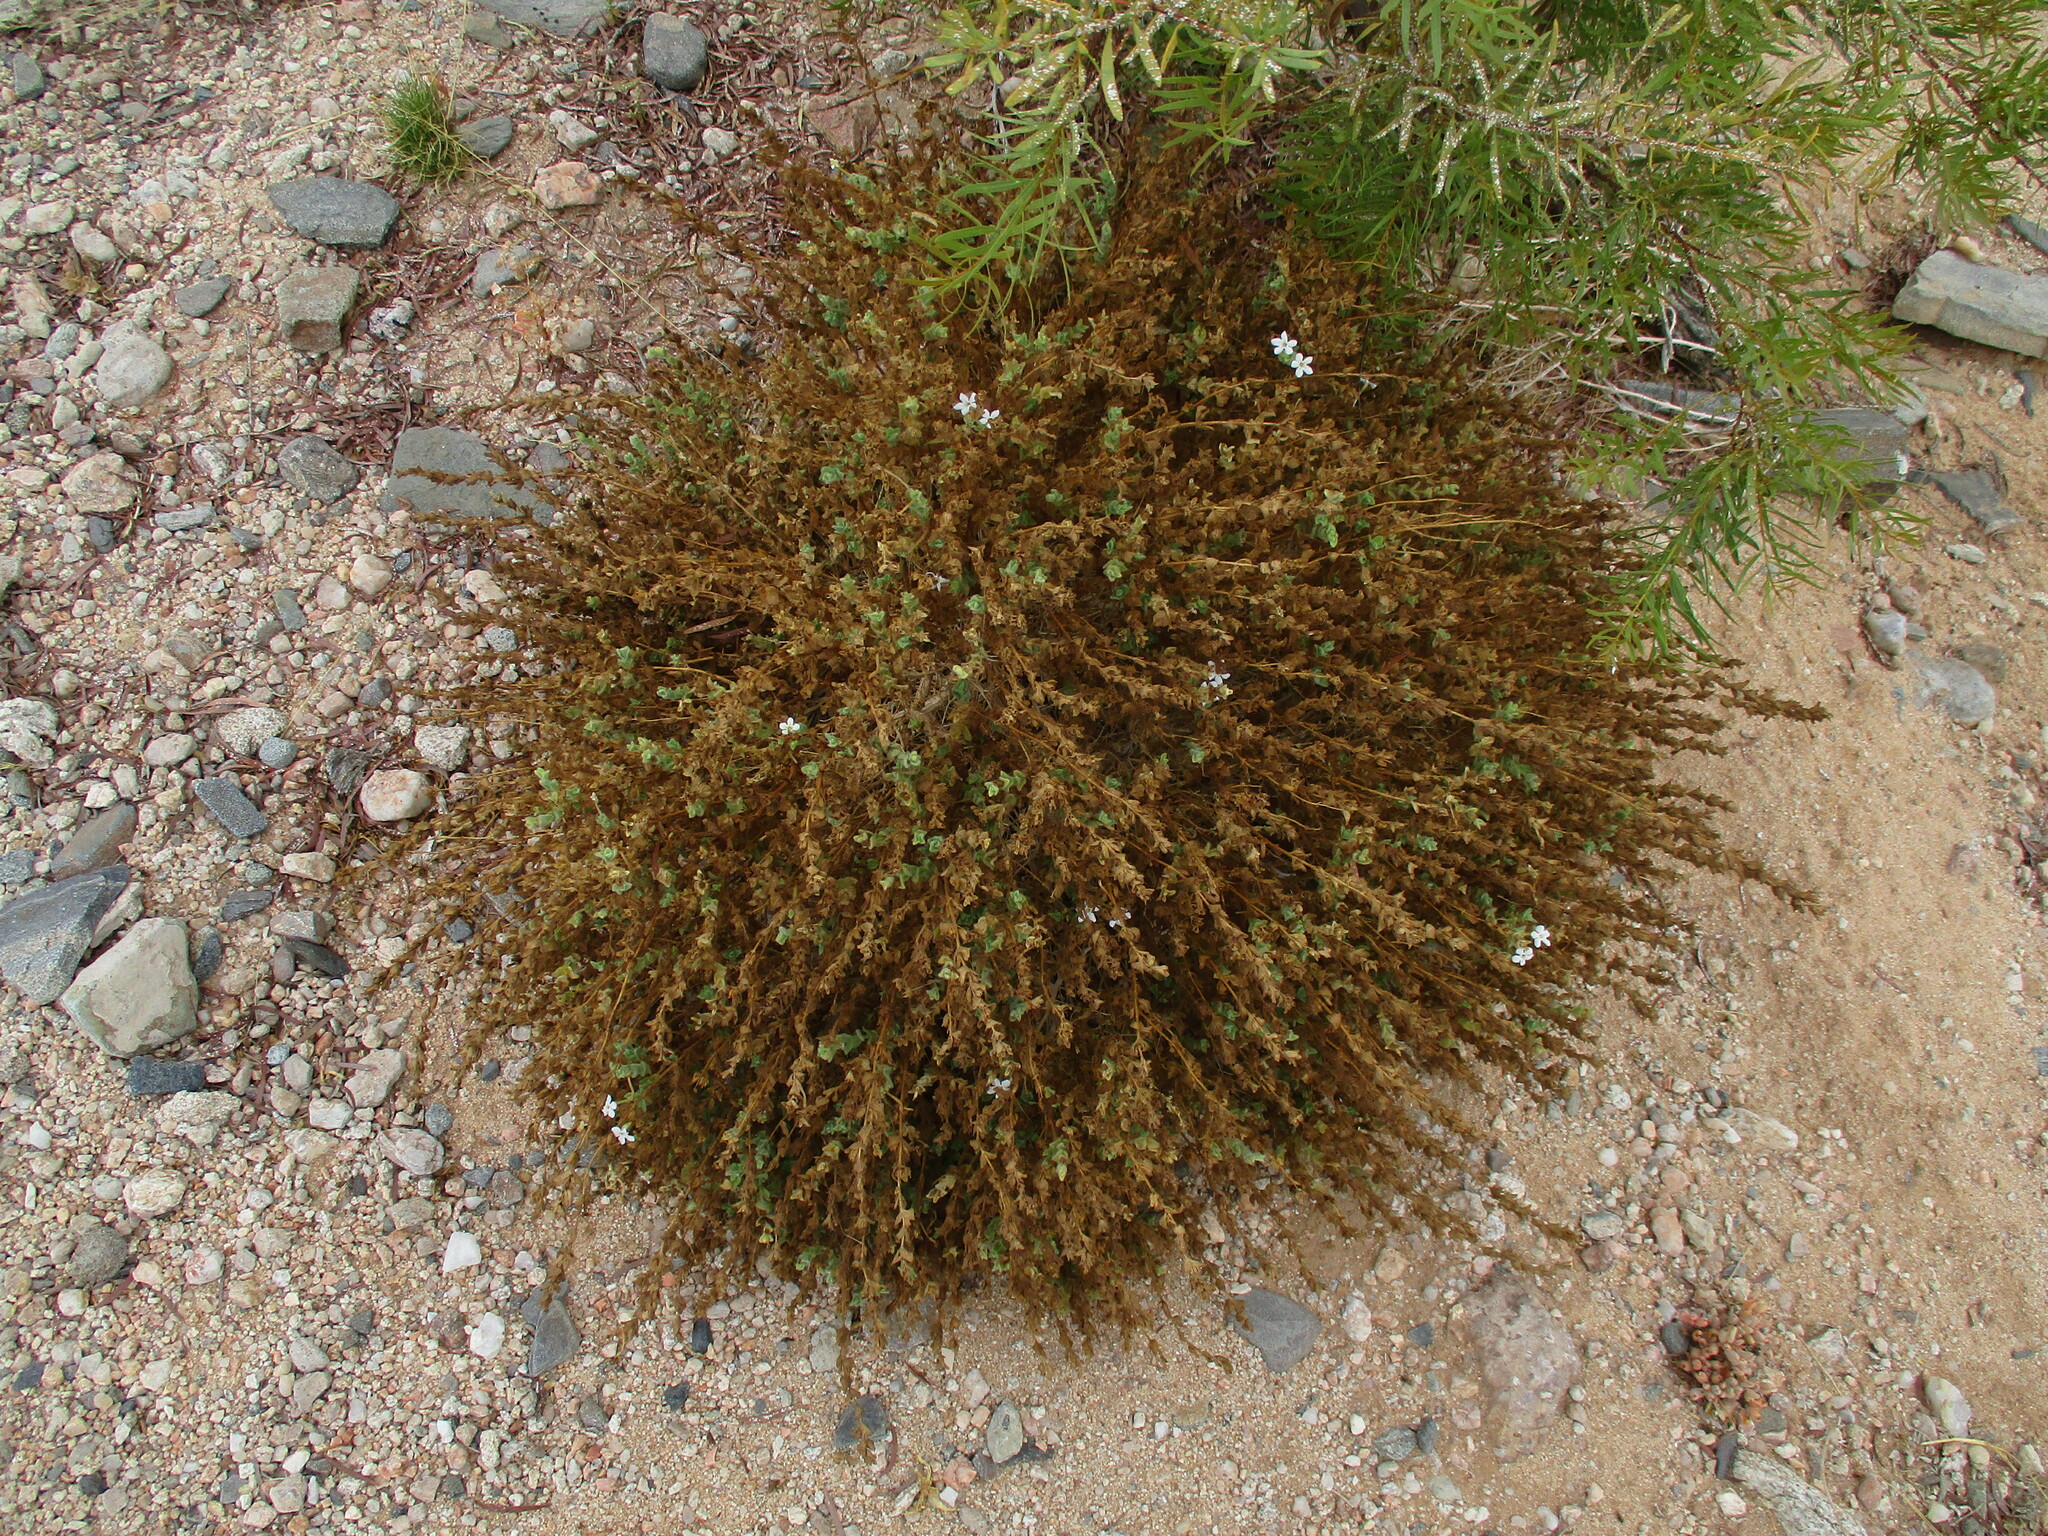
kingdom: Plantae
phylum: Tracheophyta
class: Magnoliopsida
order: Lamiales
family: Scrophulariaceae
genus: Jamesbrittenia
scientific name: Jamesbrittenia maxii
